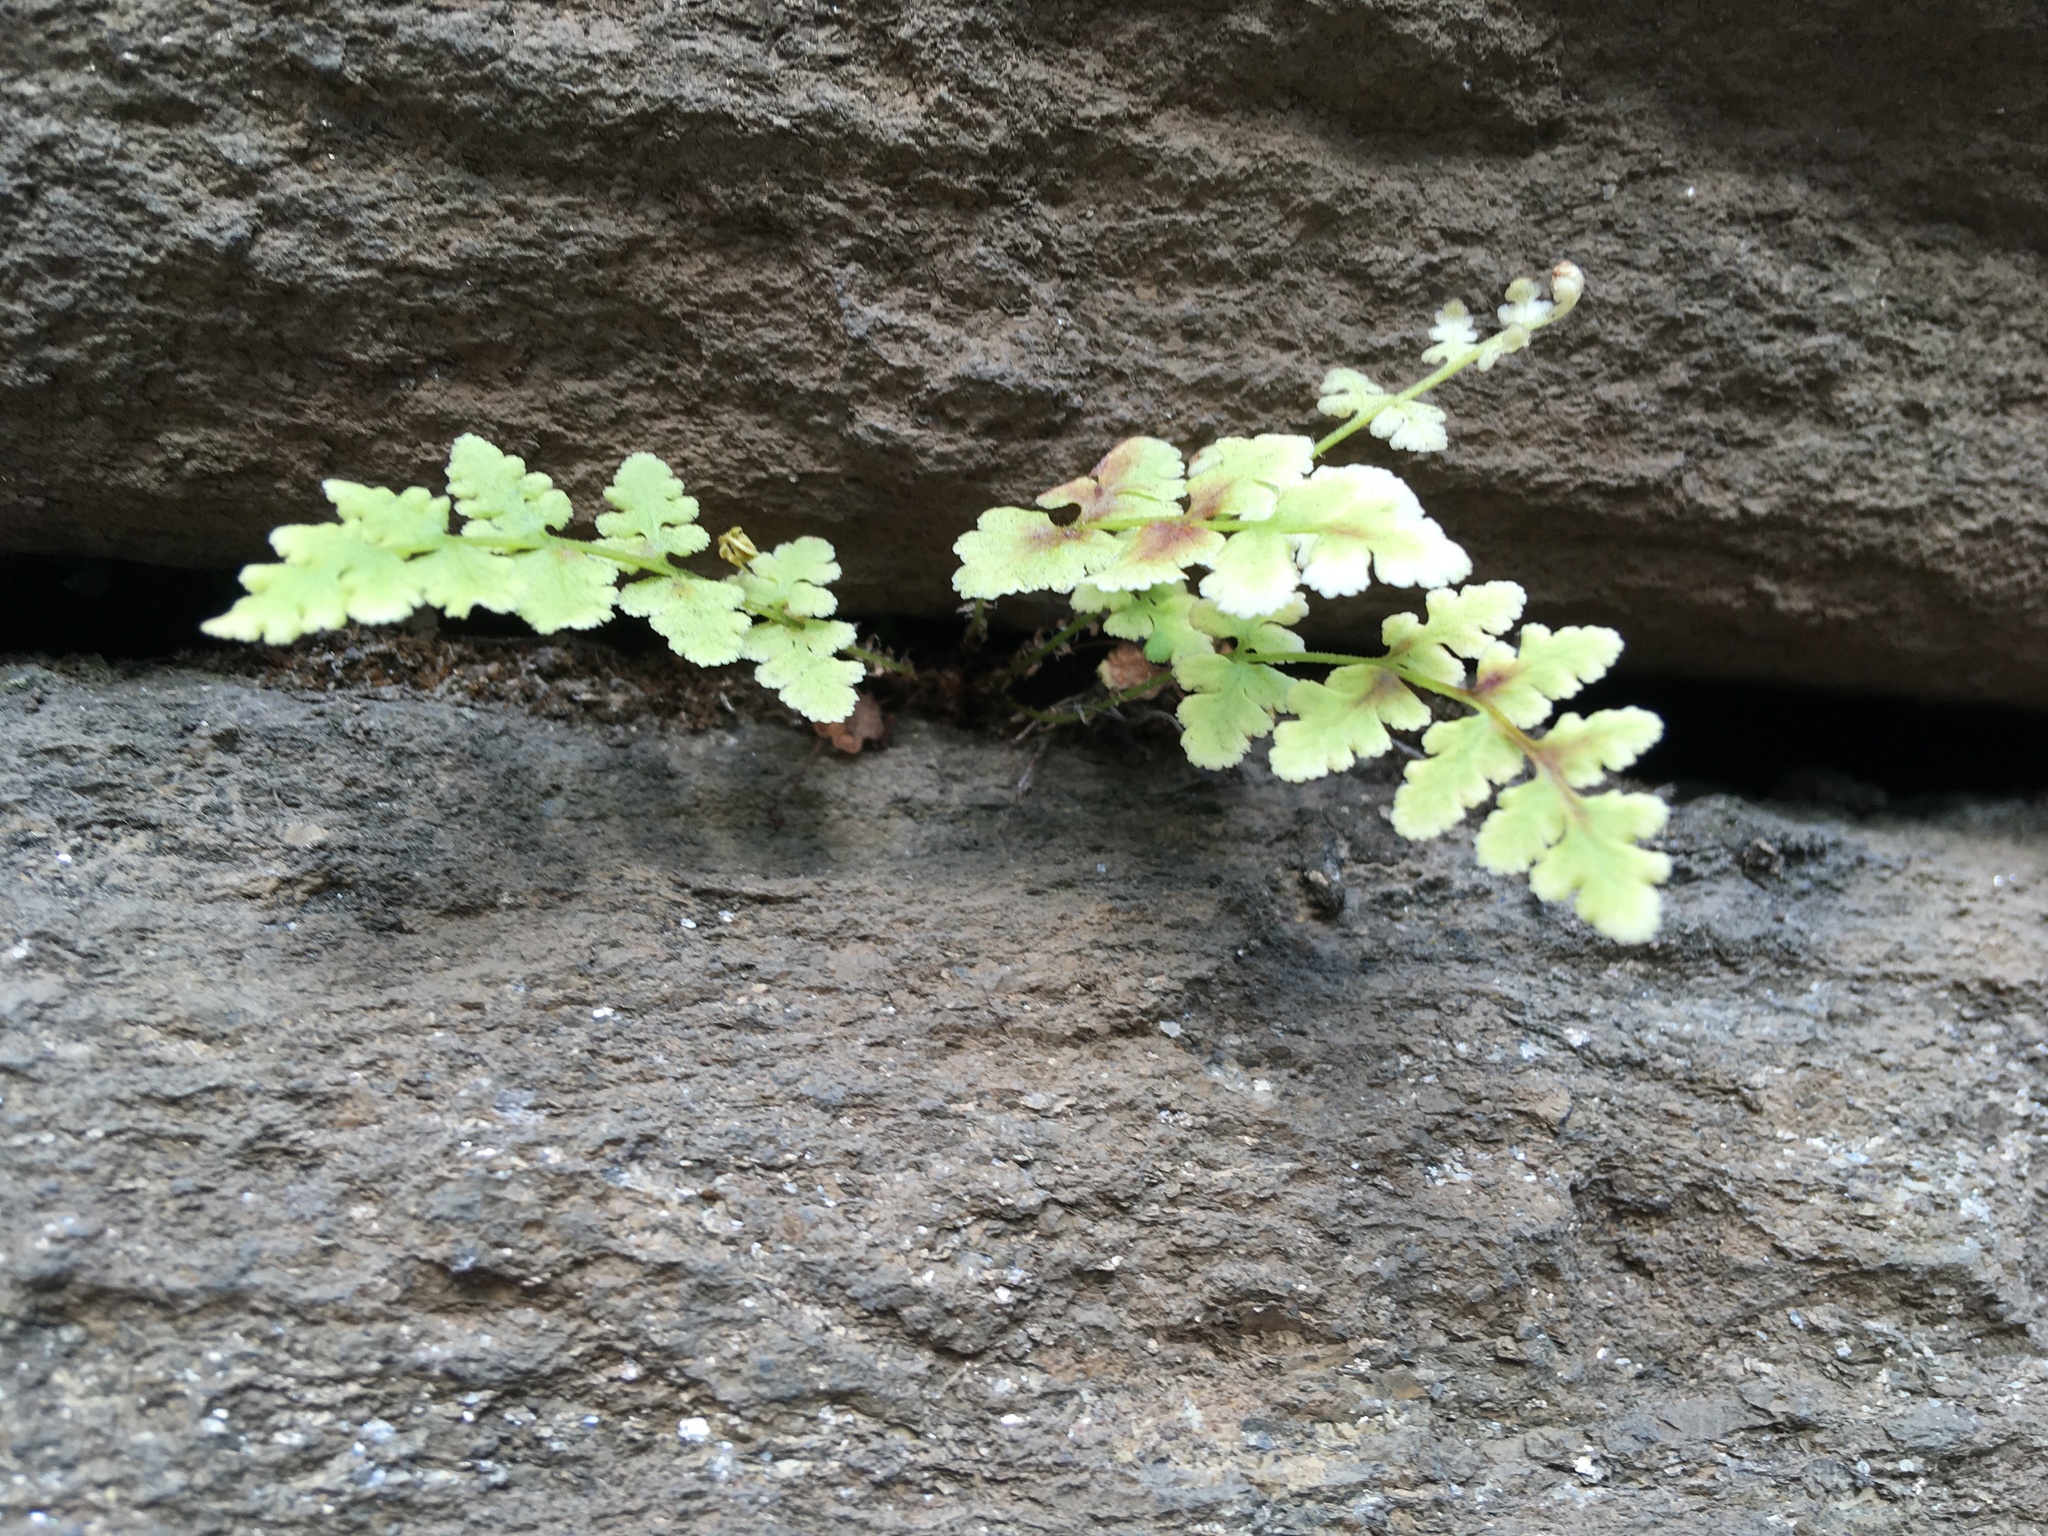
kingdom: Plantae
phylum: Tracheophyta
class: Polypodiopsida
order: Polypodiales
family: Woodsiaceae
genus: Physematium
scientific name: Physematium obtusum
